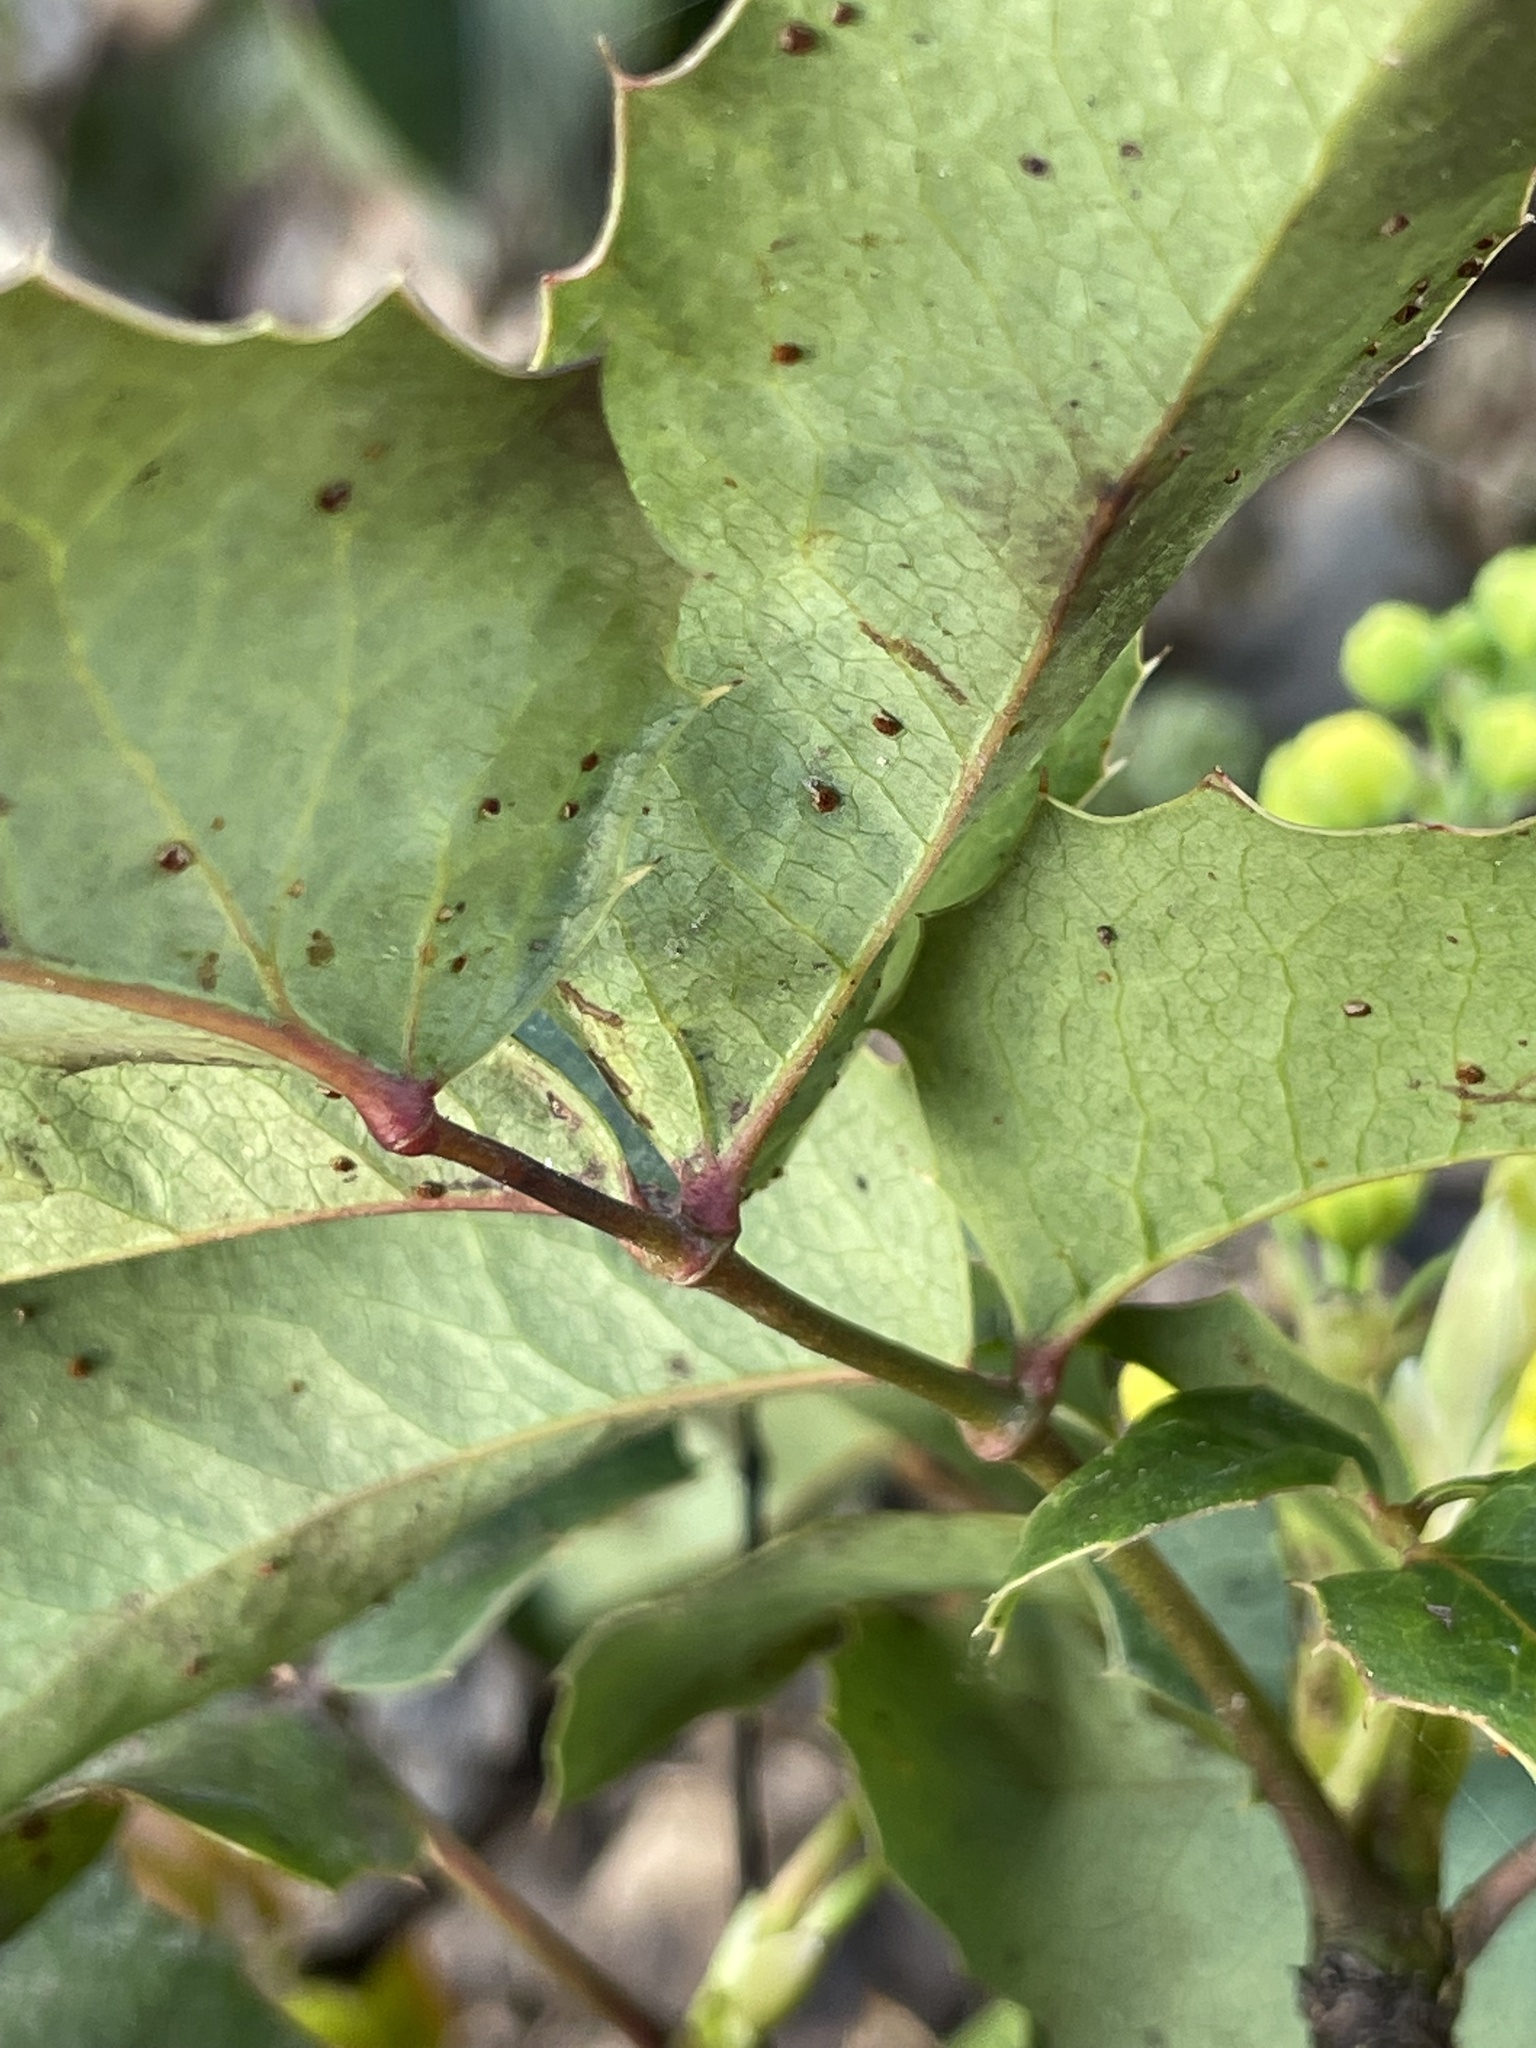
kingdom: Plantae
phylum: Tracheophyta
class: Magnoliopsida
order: Ranunculales
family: Berberidaceae
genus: Mahonia
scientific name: Mahonia repens
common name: Creeping oregon-grape
